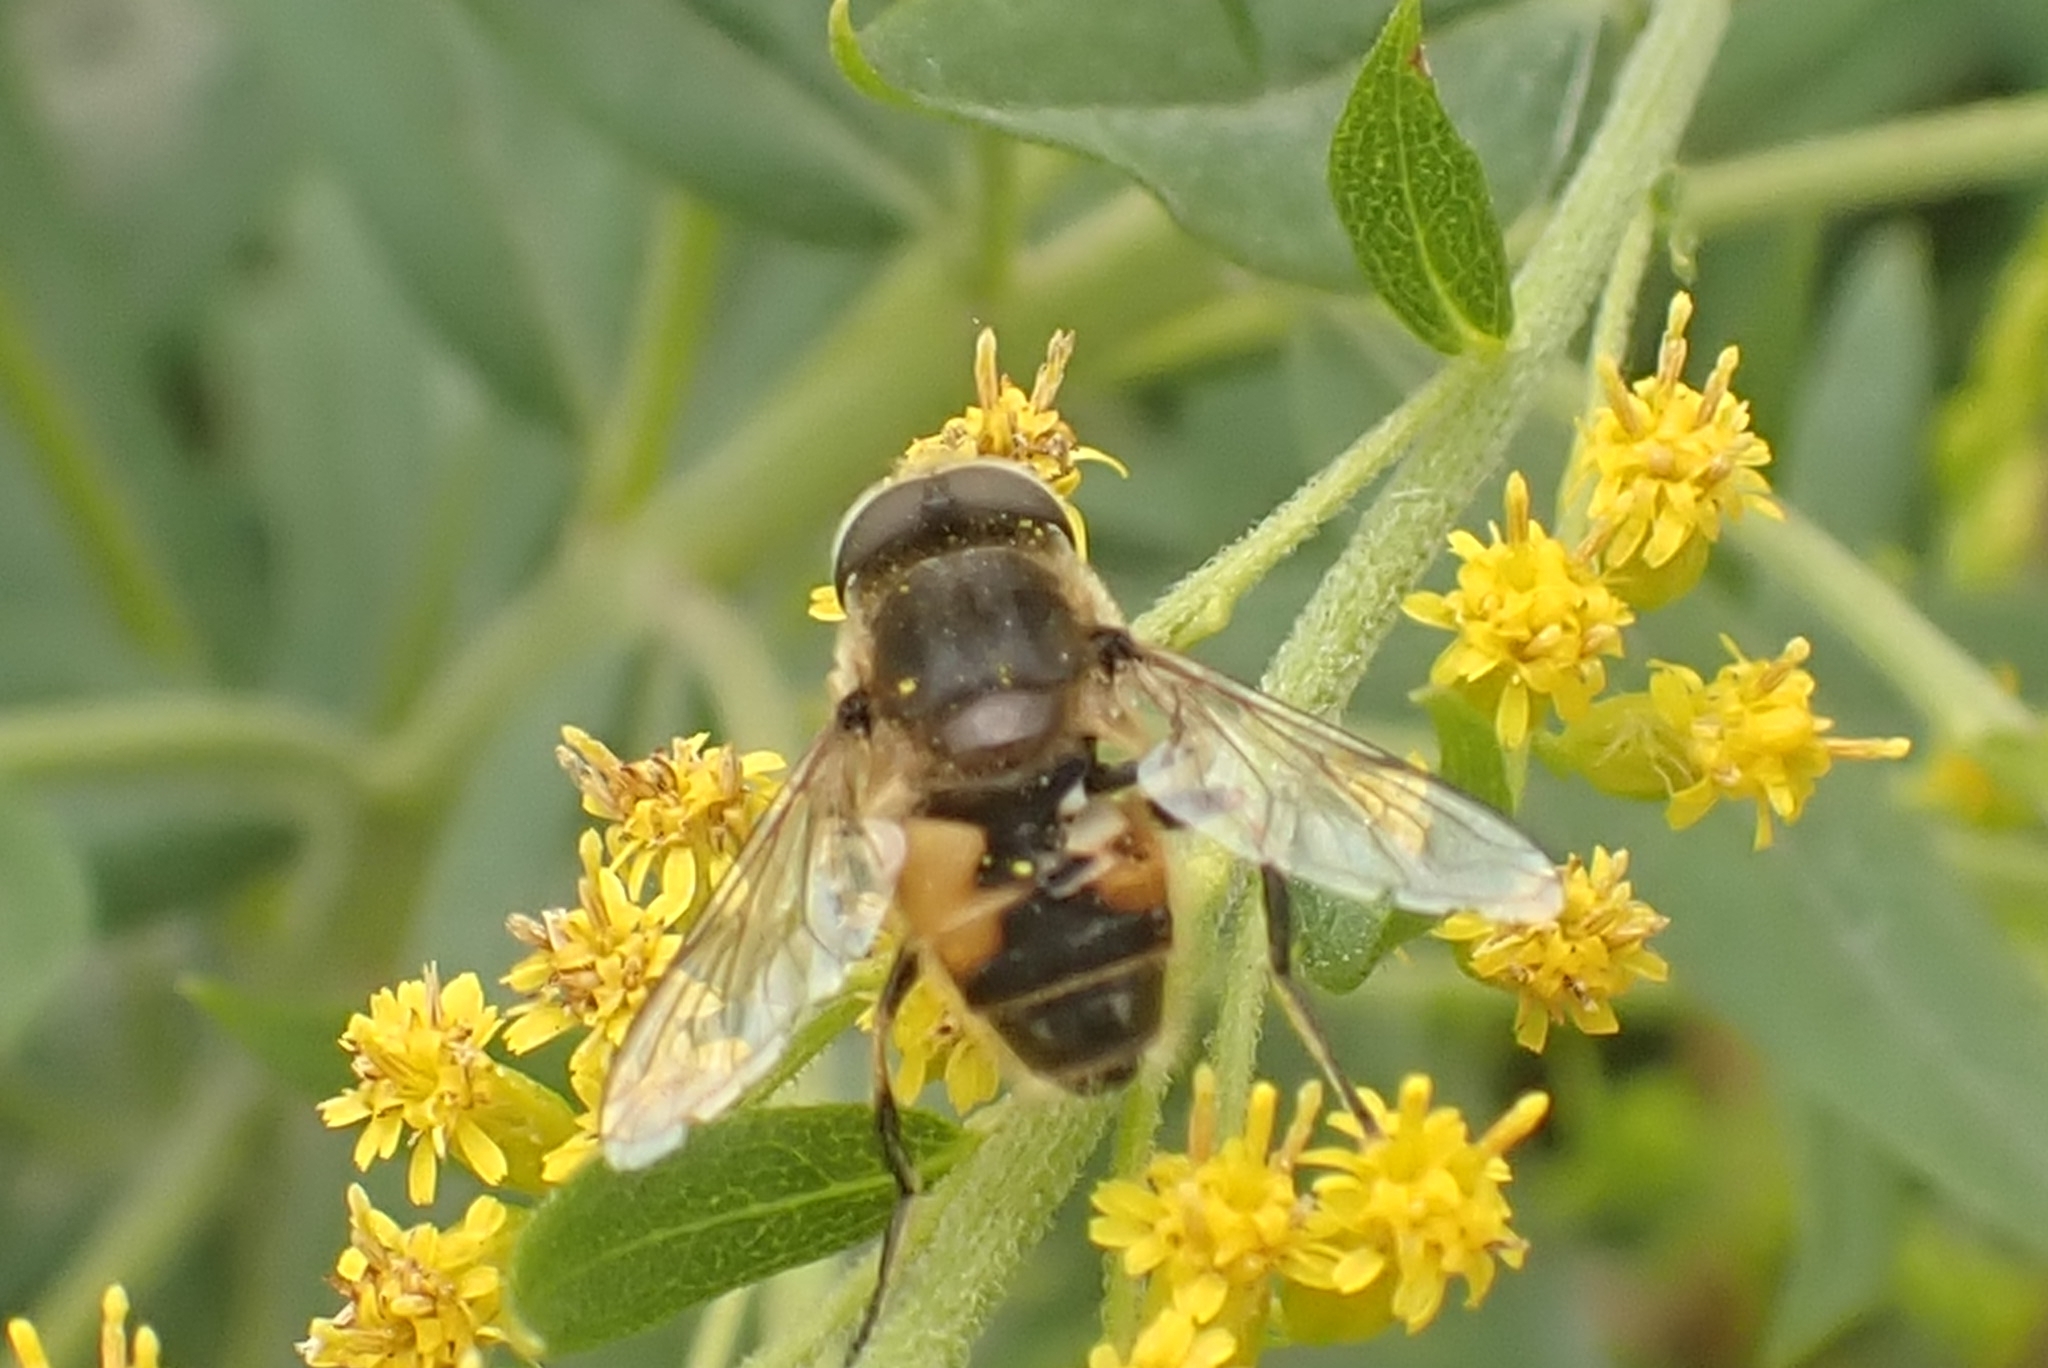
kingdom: Animalia
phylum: Arthropoda
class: Insecta
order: Diptera
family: Syrphidae
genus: Eristalis
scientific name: Eristalis arbustorum
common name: Hover fly
